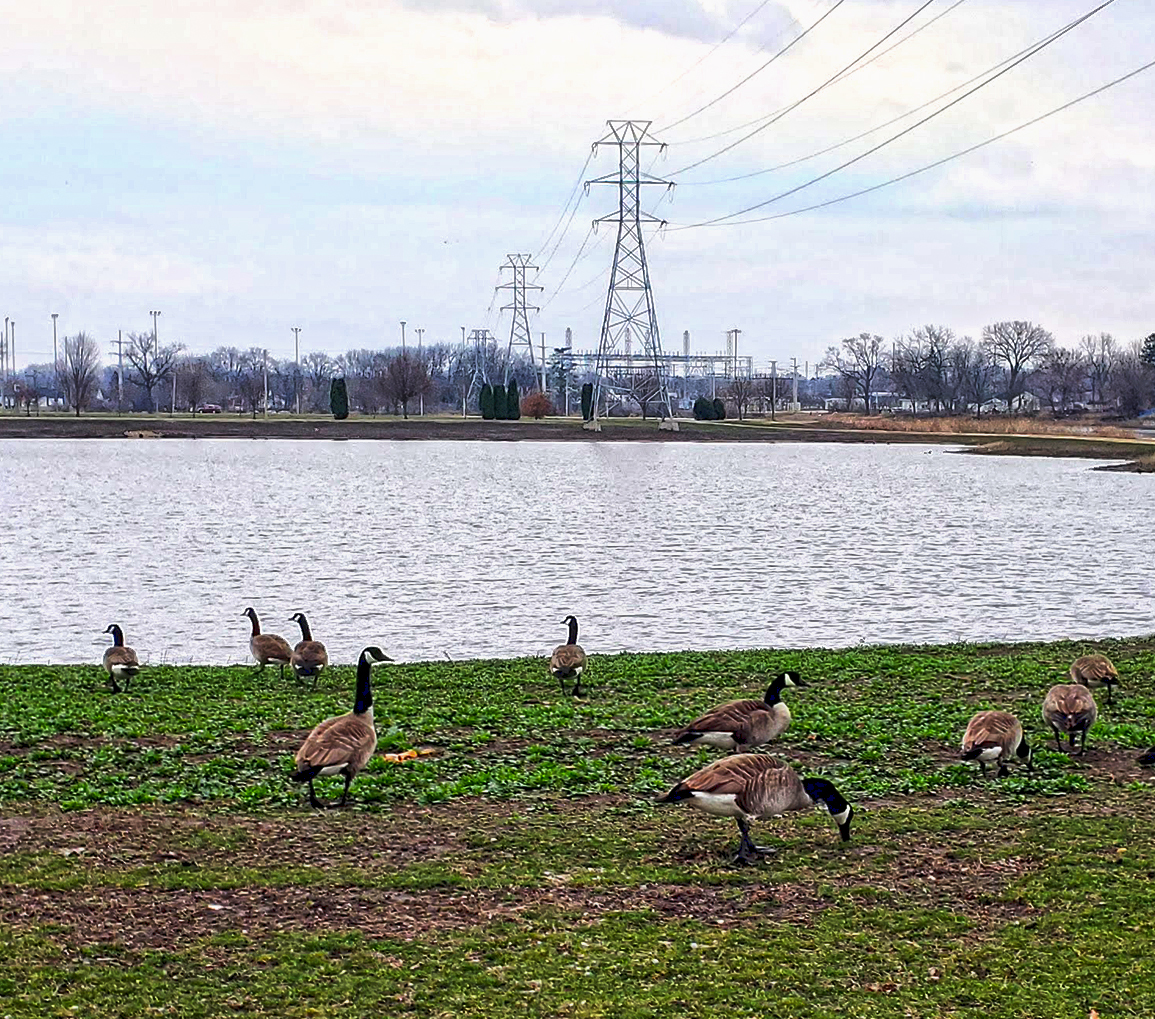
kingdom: Animalia
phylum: Chordata
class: Aves
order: Anseriformes
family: Anatidae
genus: Branta
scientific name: Branta canadensis
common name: Canada goose
